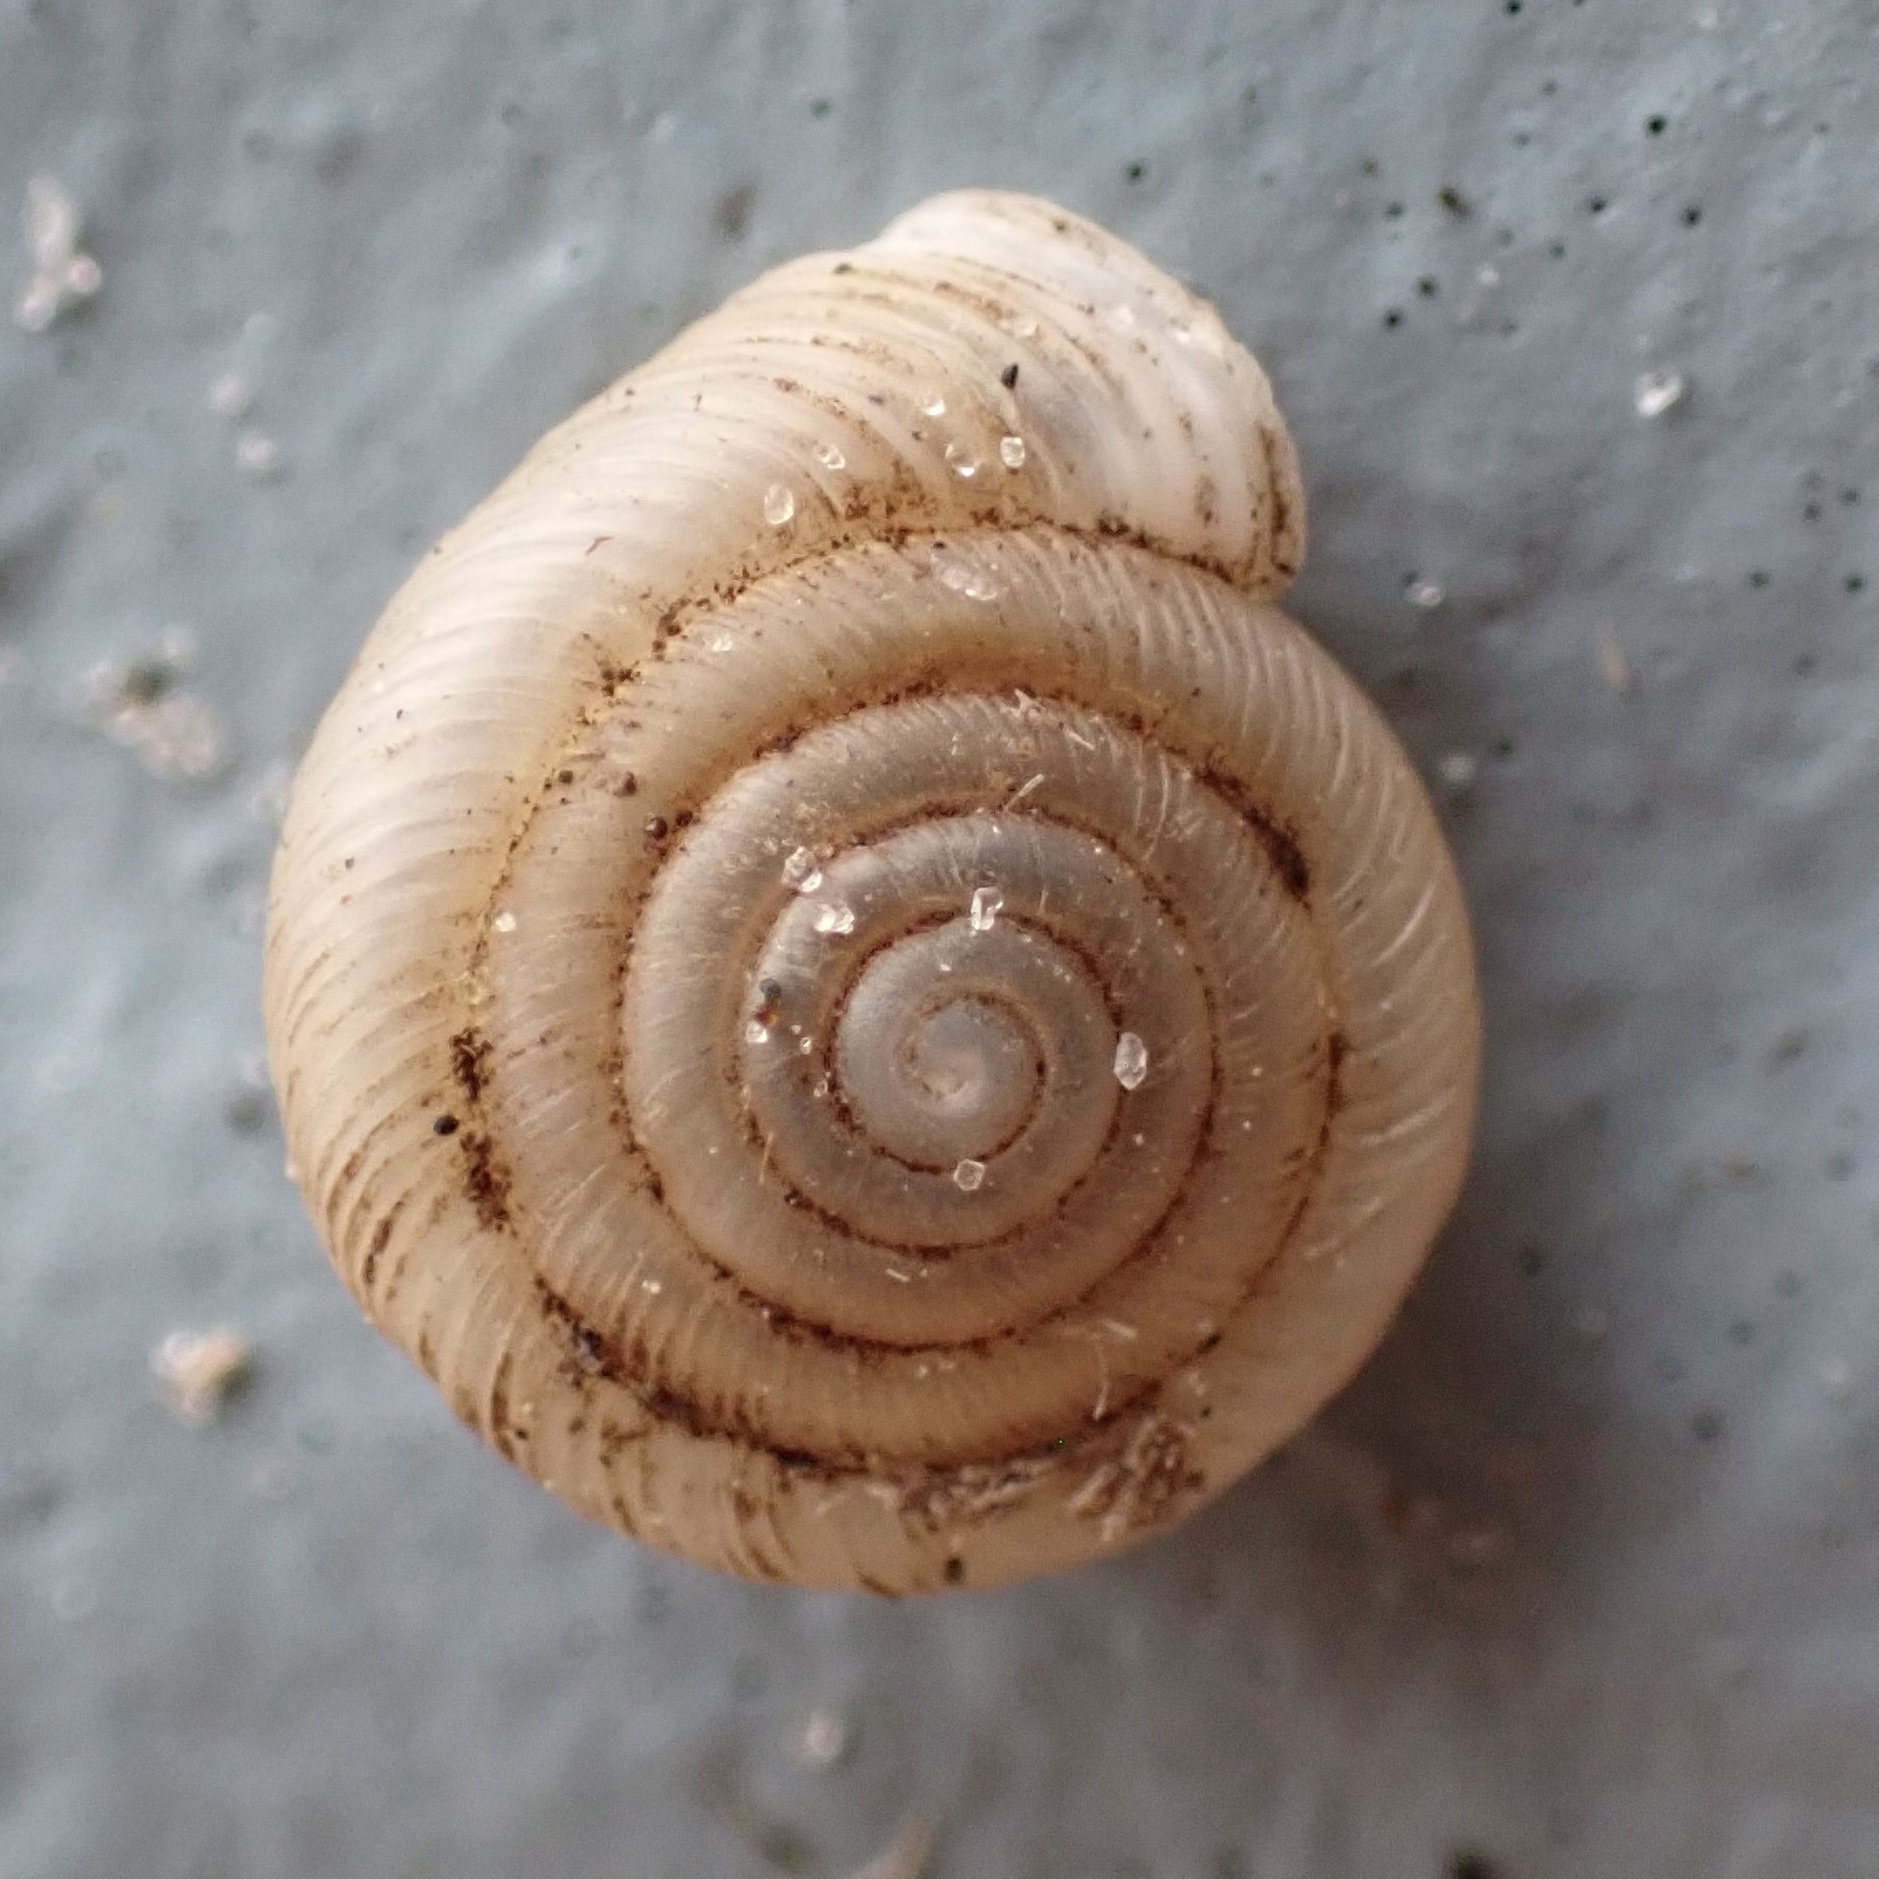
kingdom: Animalia
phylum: Mollusca
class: Gastropoda
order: Stylommatophora
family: Polygyridae
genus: Polygyra
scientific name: Polygyra cereolus
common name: Southern flatcone snail
